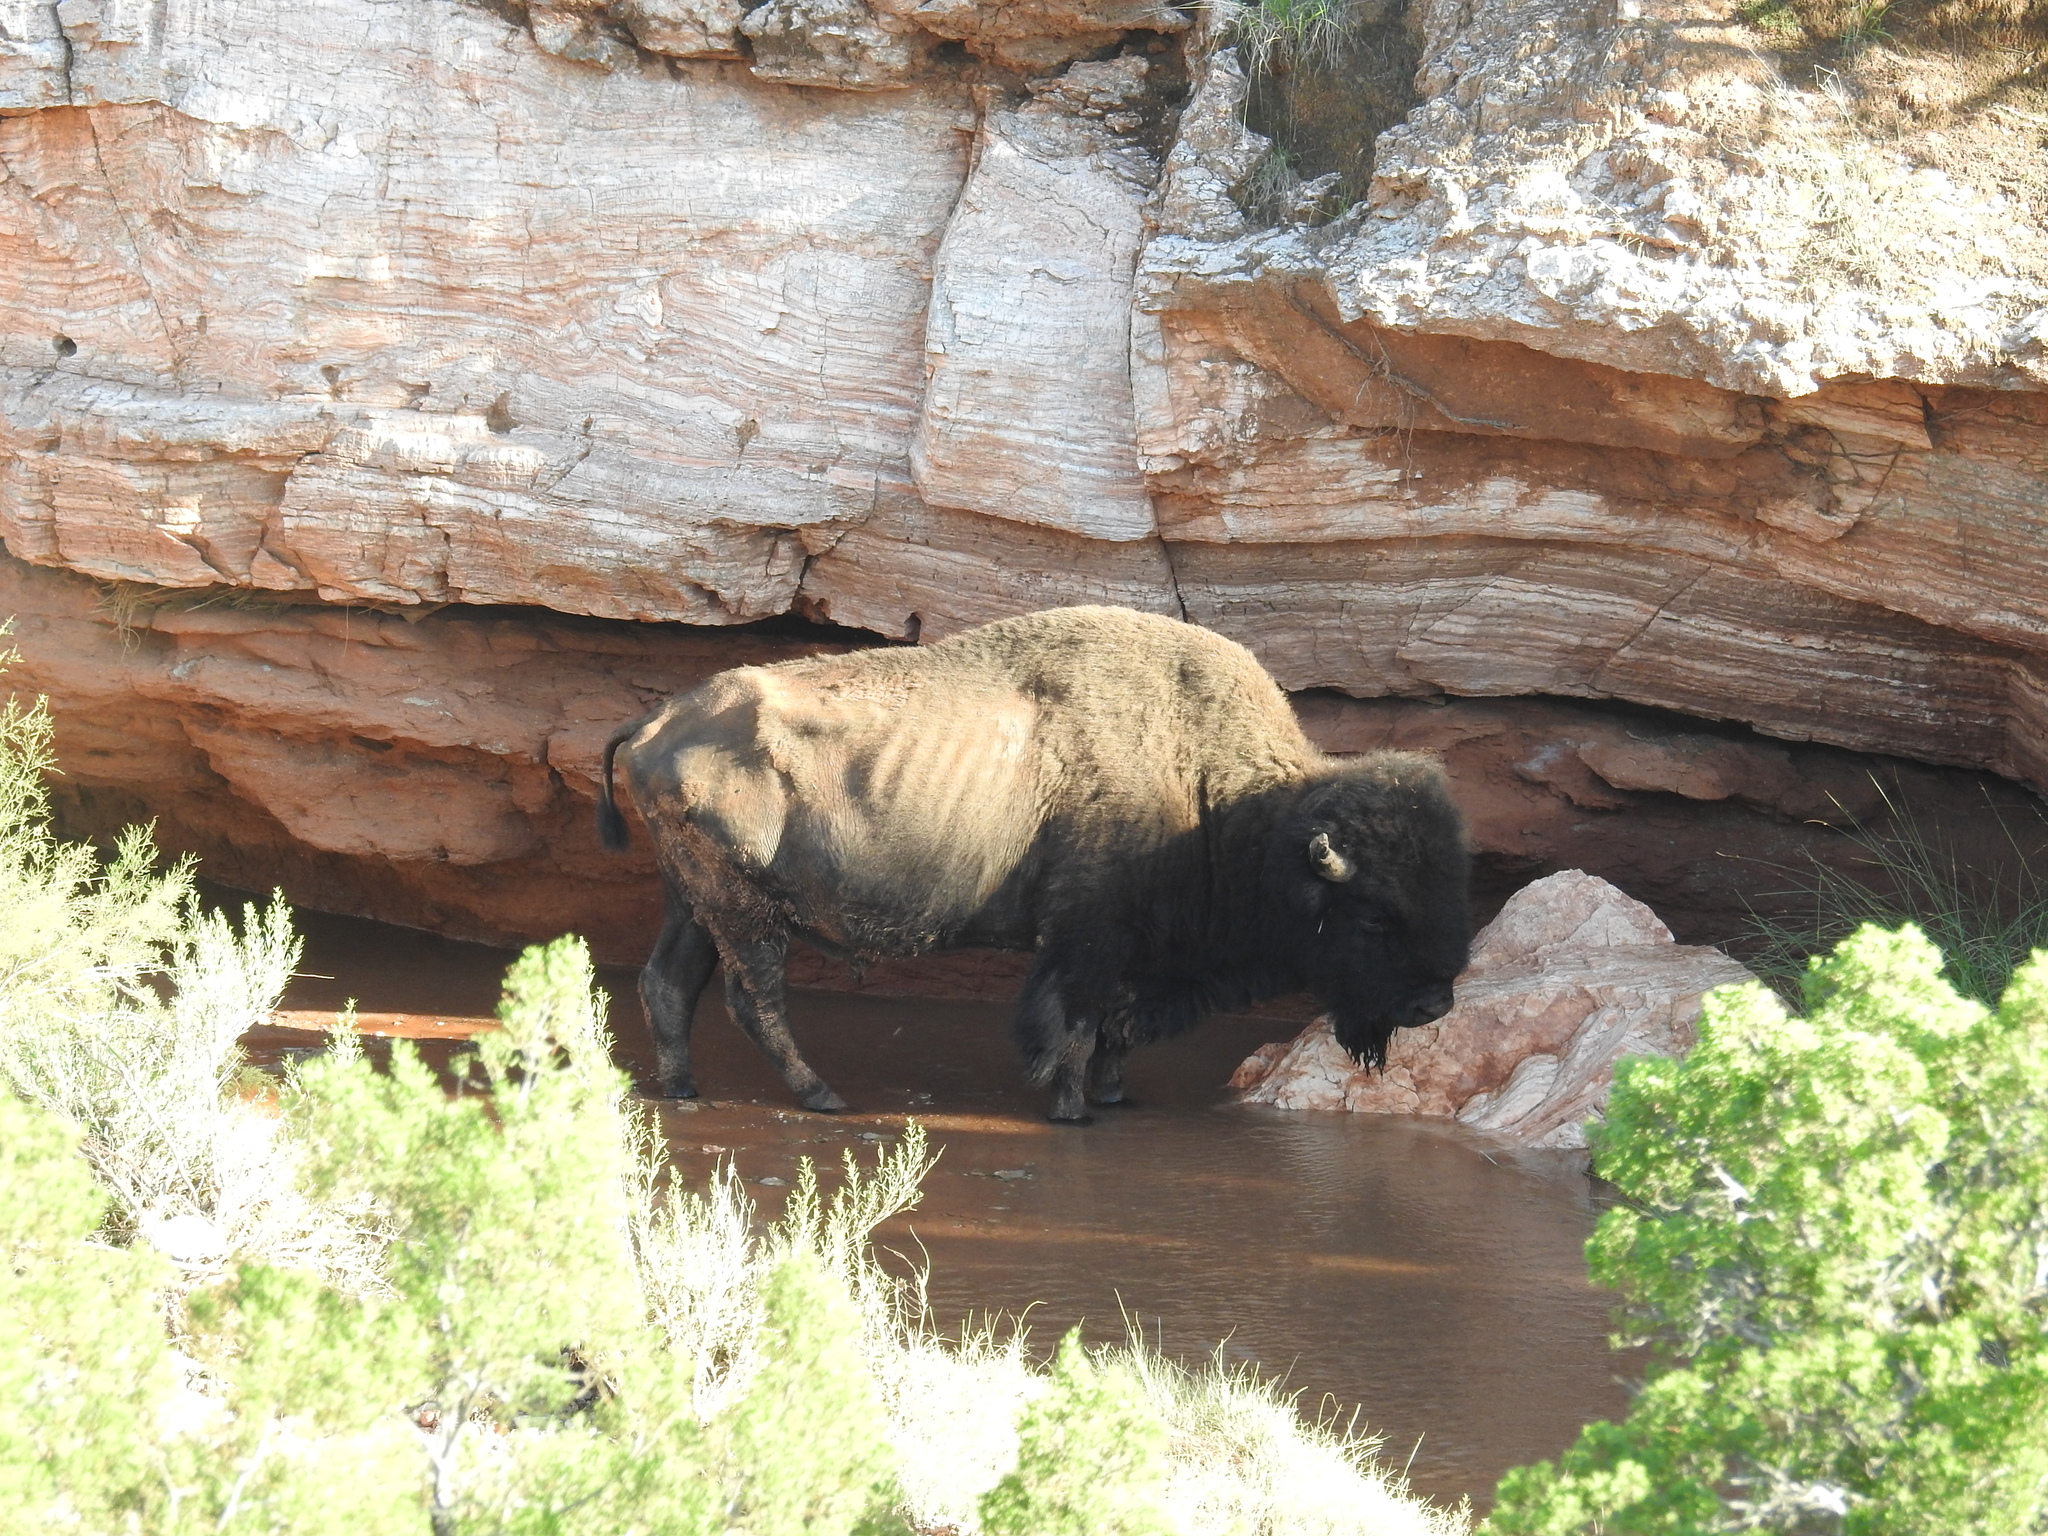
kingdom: Animalia
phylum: Chordata
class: Mammalia
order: Artiodactyla
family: Bovidae
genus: Bison
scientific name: Bison bison
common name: American bison
